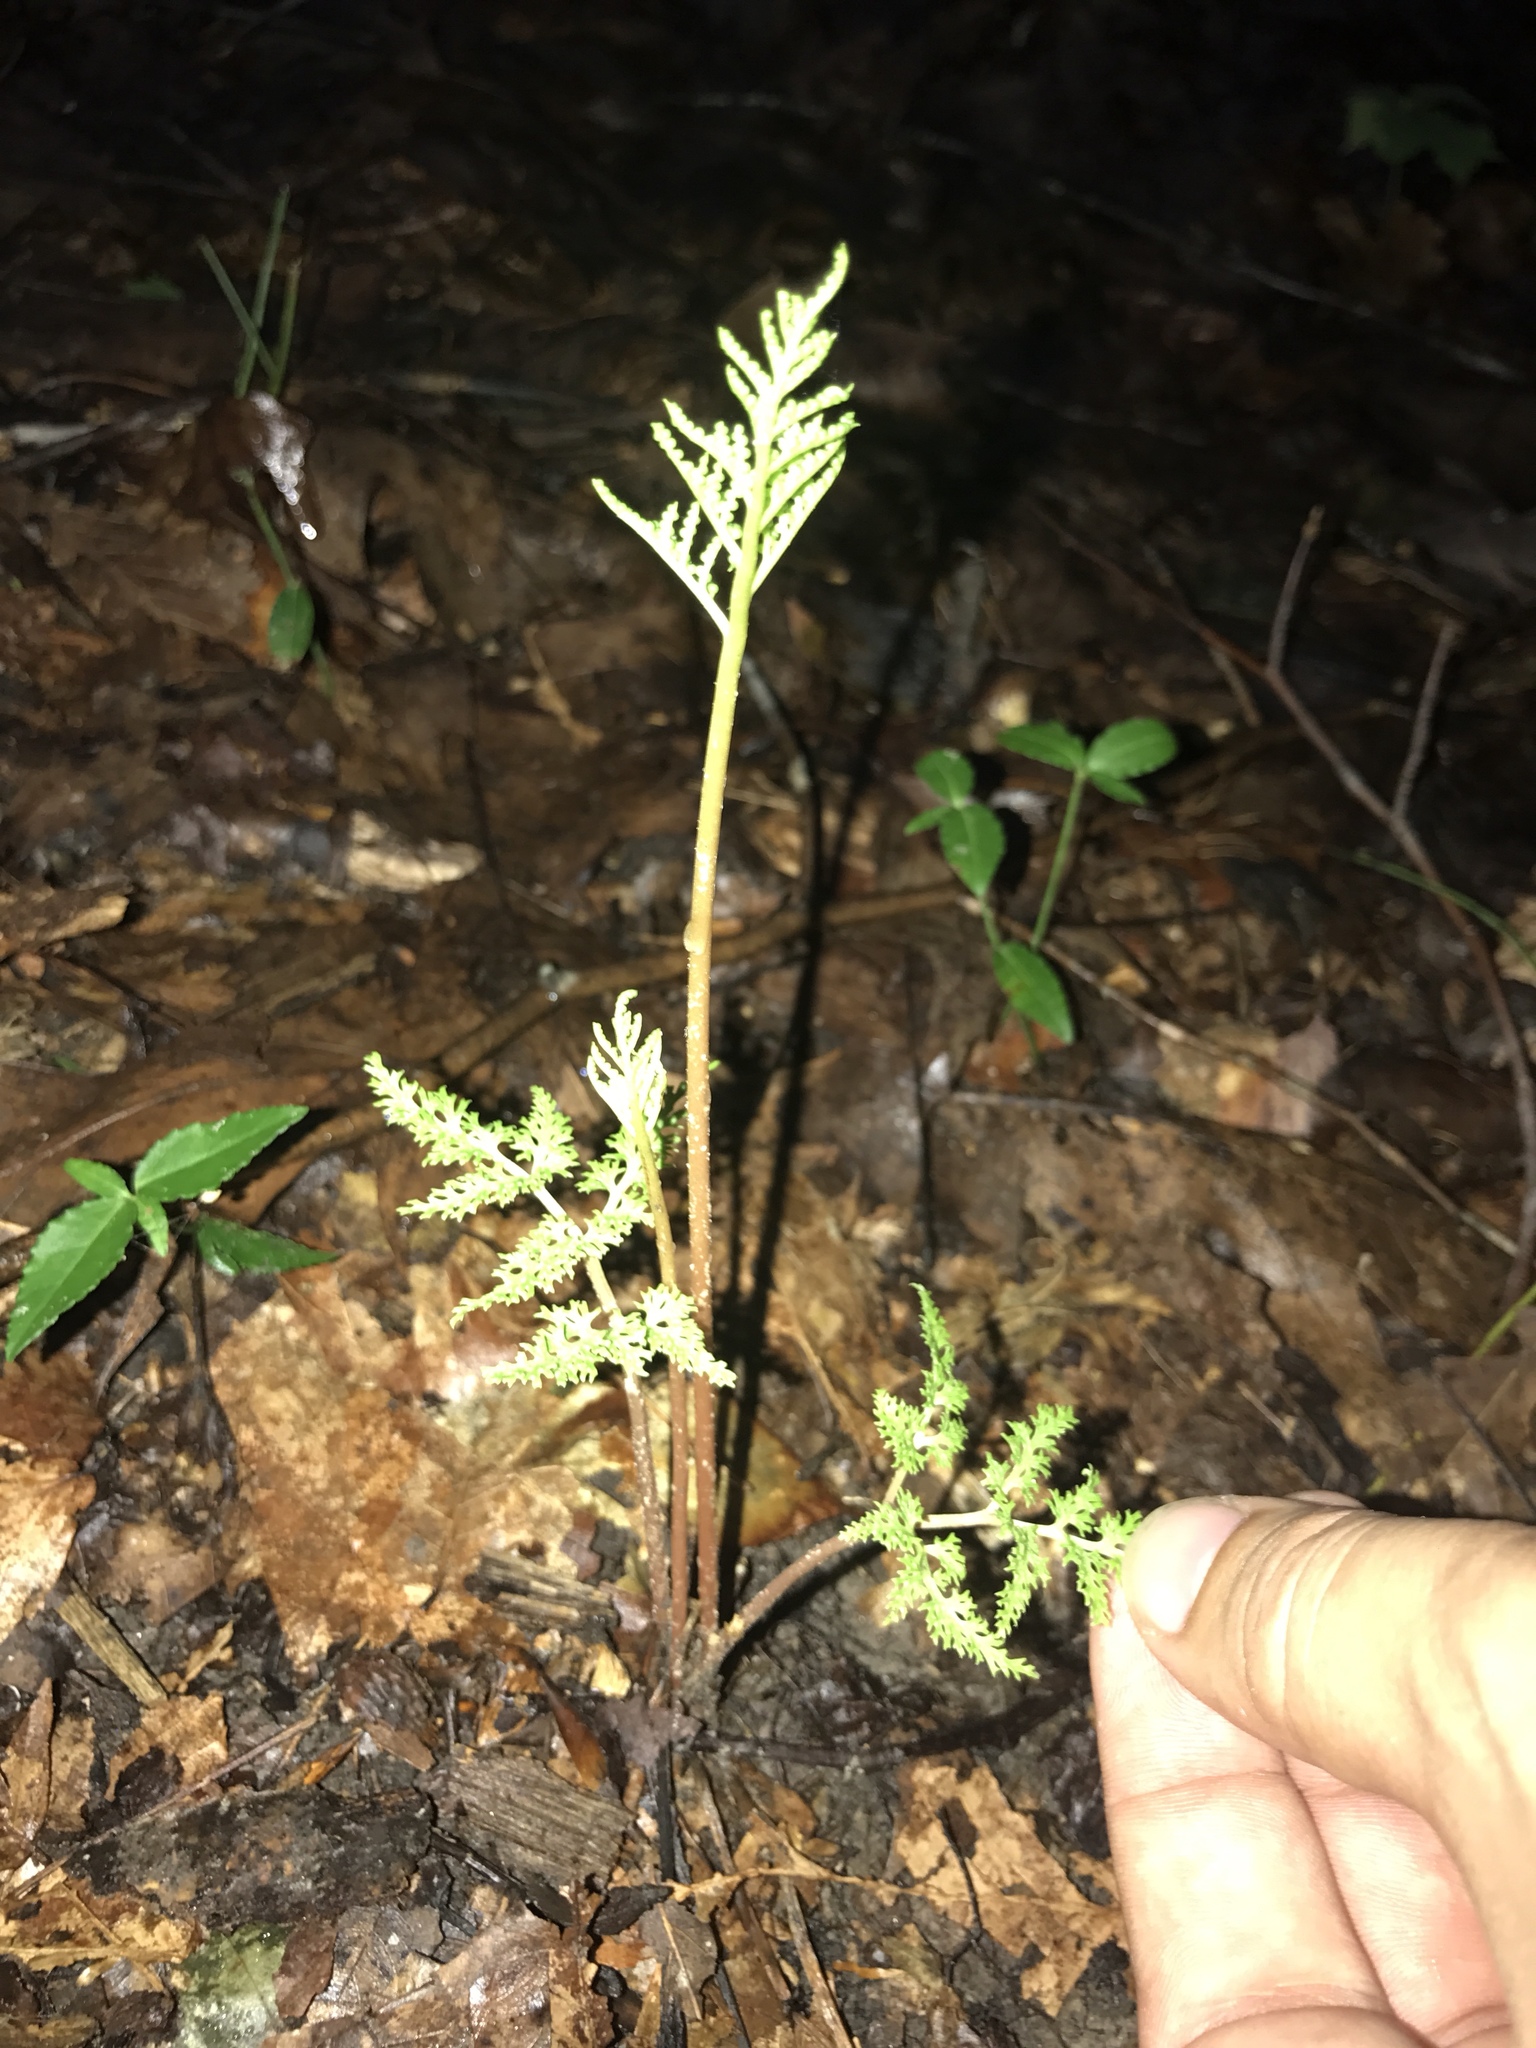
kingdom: Plantae
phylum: Tracheophyta
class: Polypodiopsida
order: Ophioglossales
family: Ophioglossaceae
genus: Sceptridium
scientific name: Sceptridium dissectum
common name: Cut-leaved grapefern
